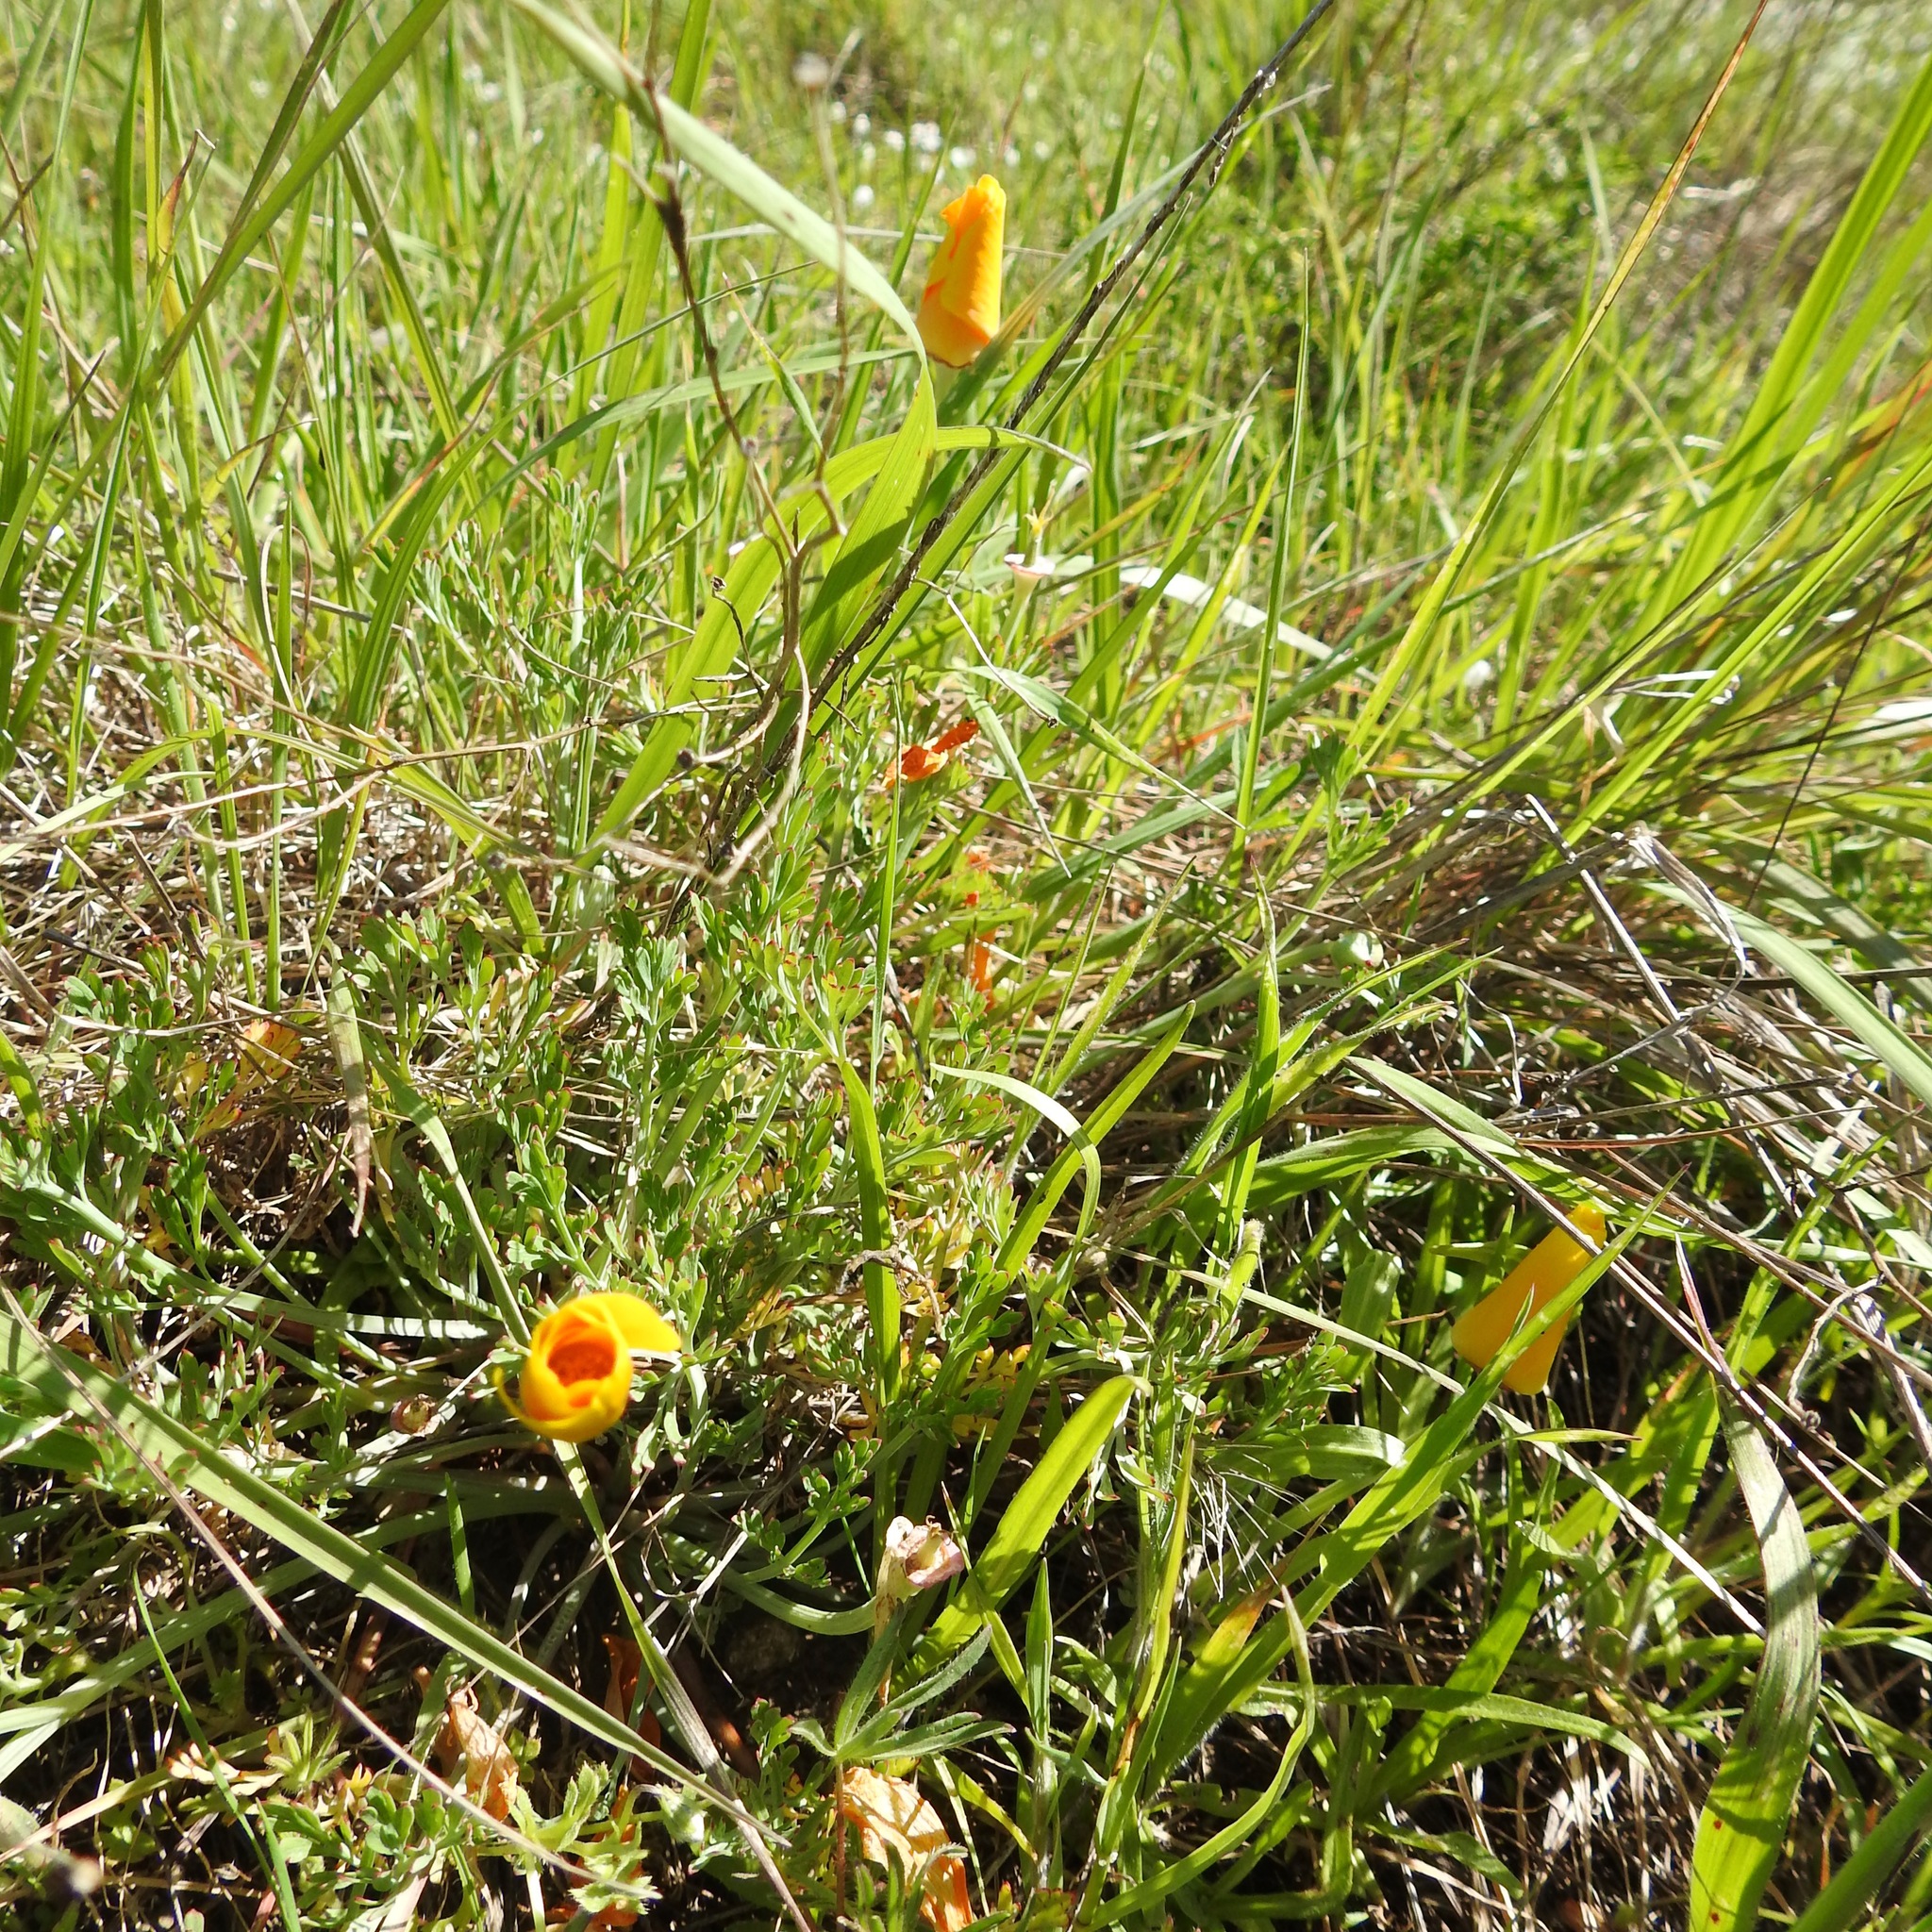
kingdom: Plantae
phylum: Tracheophyta
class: Magnoliopsida
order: Ranunculales
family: Papaveraceae
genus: Eschscholzia
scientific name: Eschscholzia californica
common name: California poppy
